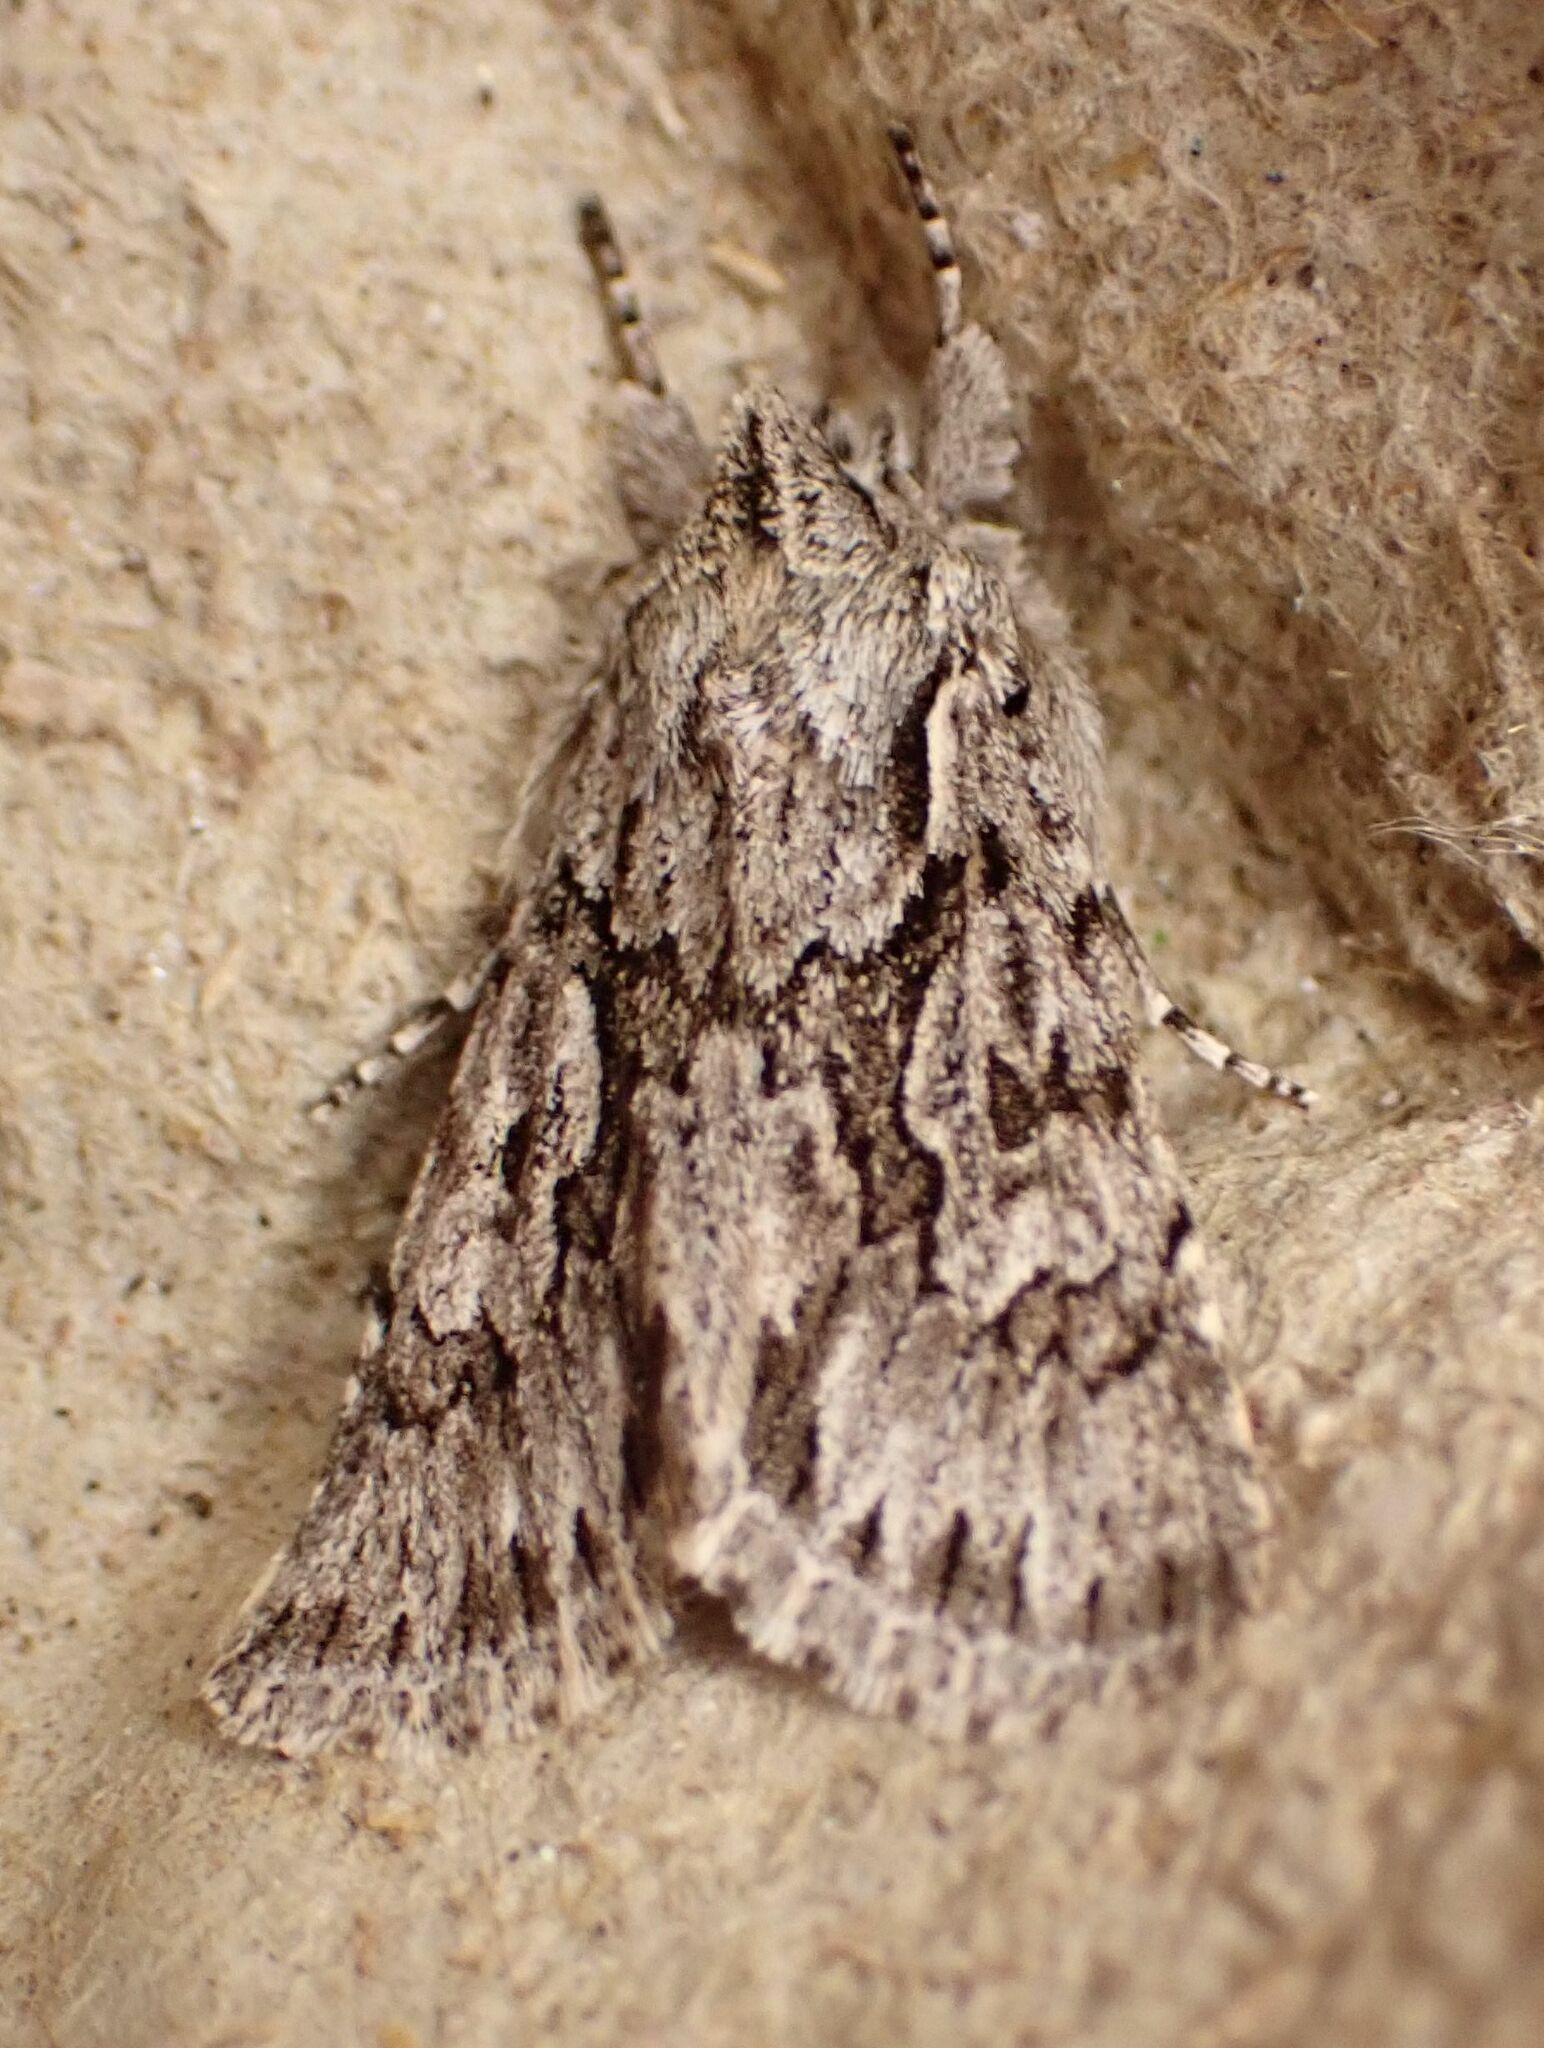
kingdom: Animalia
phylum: Arthropoda
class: Insecta
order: Lepidoptera
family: Noctuidae
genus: Xylocampa
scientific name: Xylocampa areola
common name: Early grey
